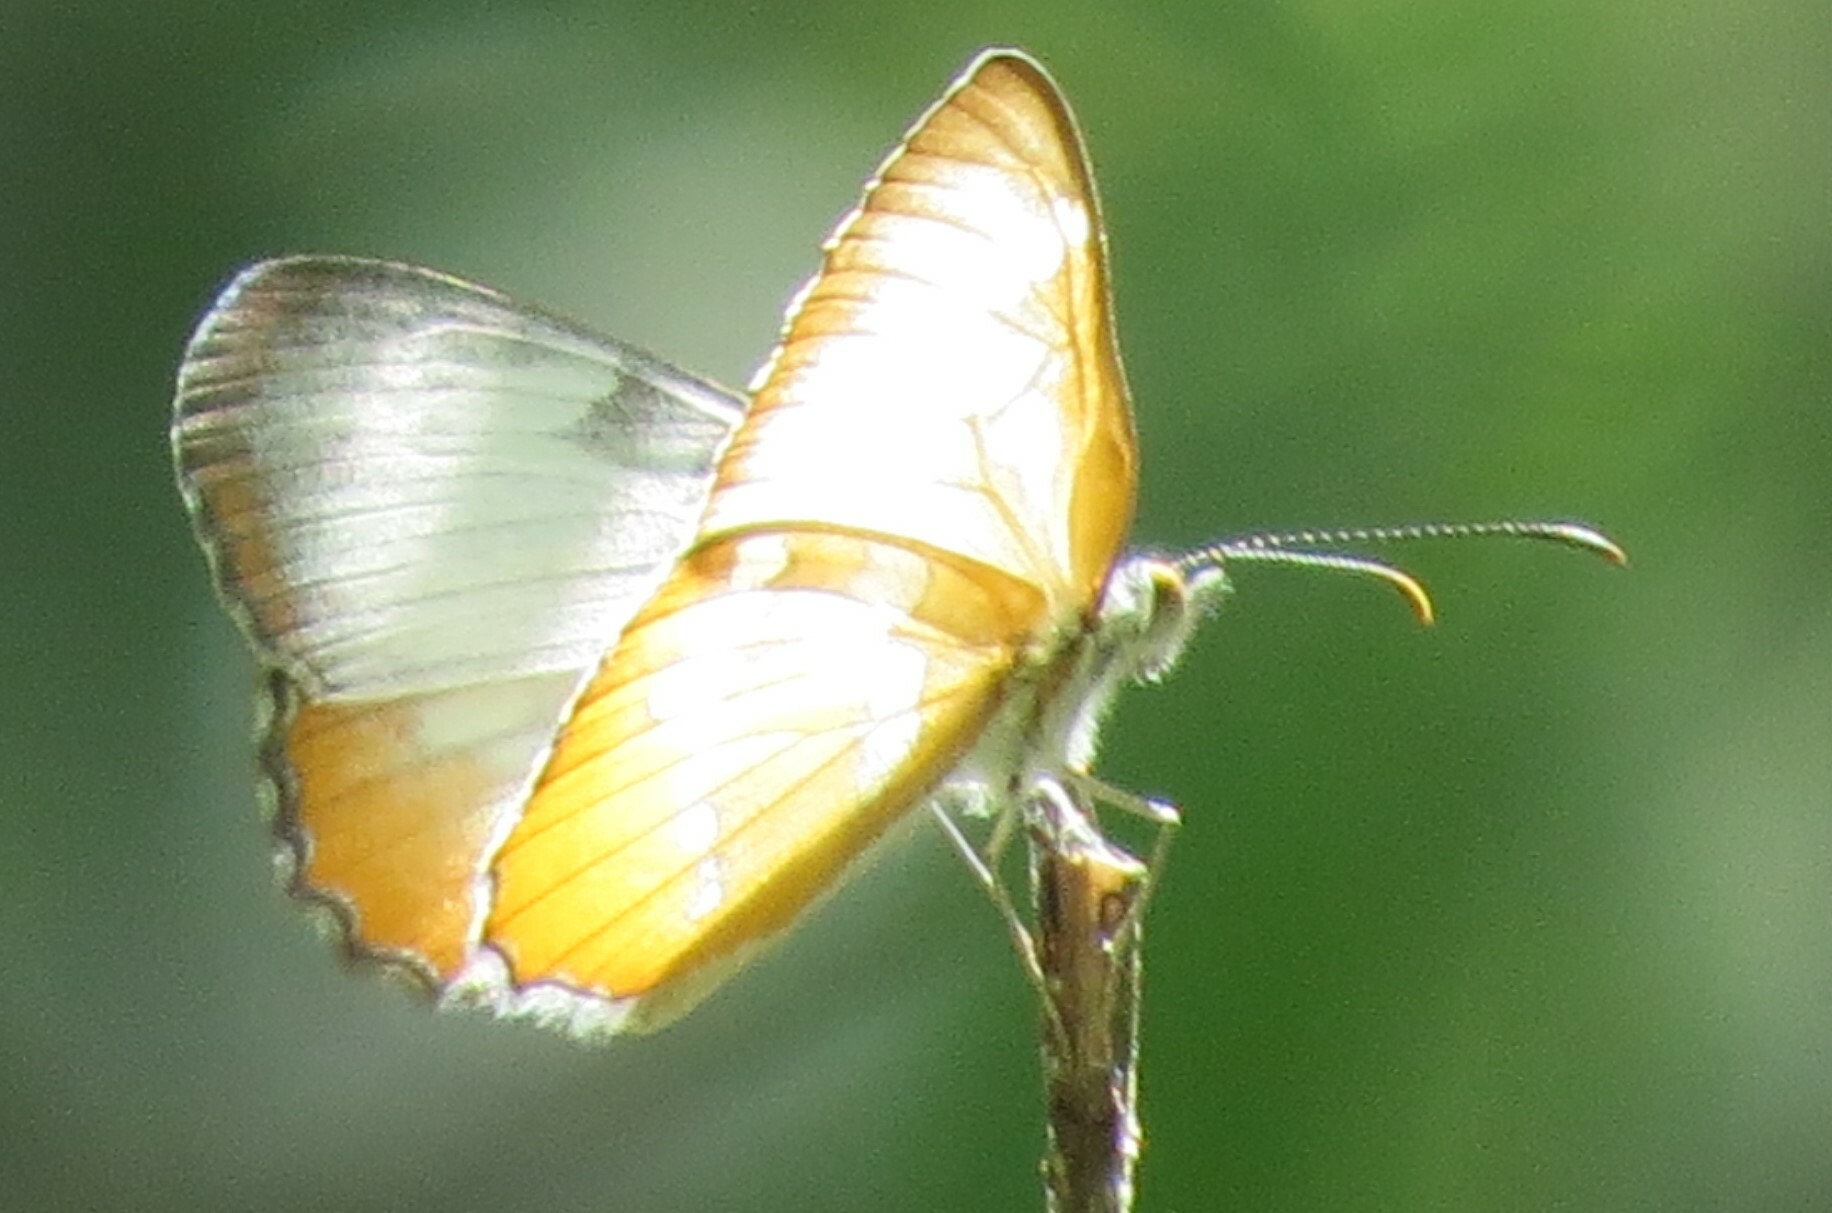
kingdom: Animalia
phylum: Arthropoda
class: Insecta
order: Lepidoptera
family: Nymphalidae
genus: Mestra
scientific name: Mestra amymone
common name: Common mestra
